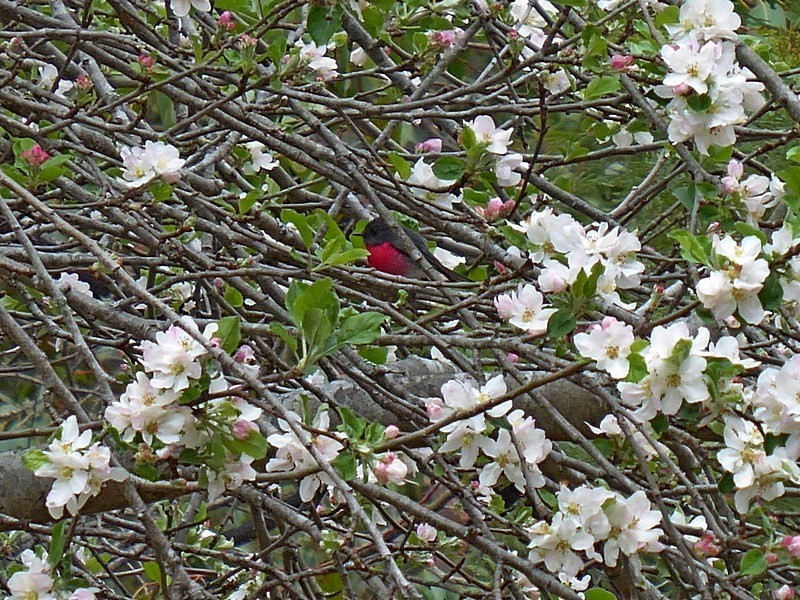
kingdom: Animalia
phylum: Chordata
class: Aves
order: Passeriformes
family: Petroicidae
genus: Petroica
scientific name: Petroica rosea
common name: Rose robin
